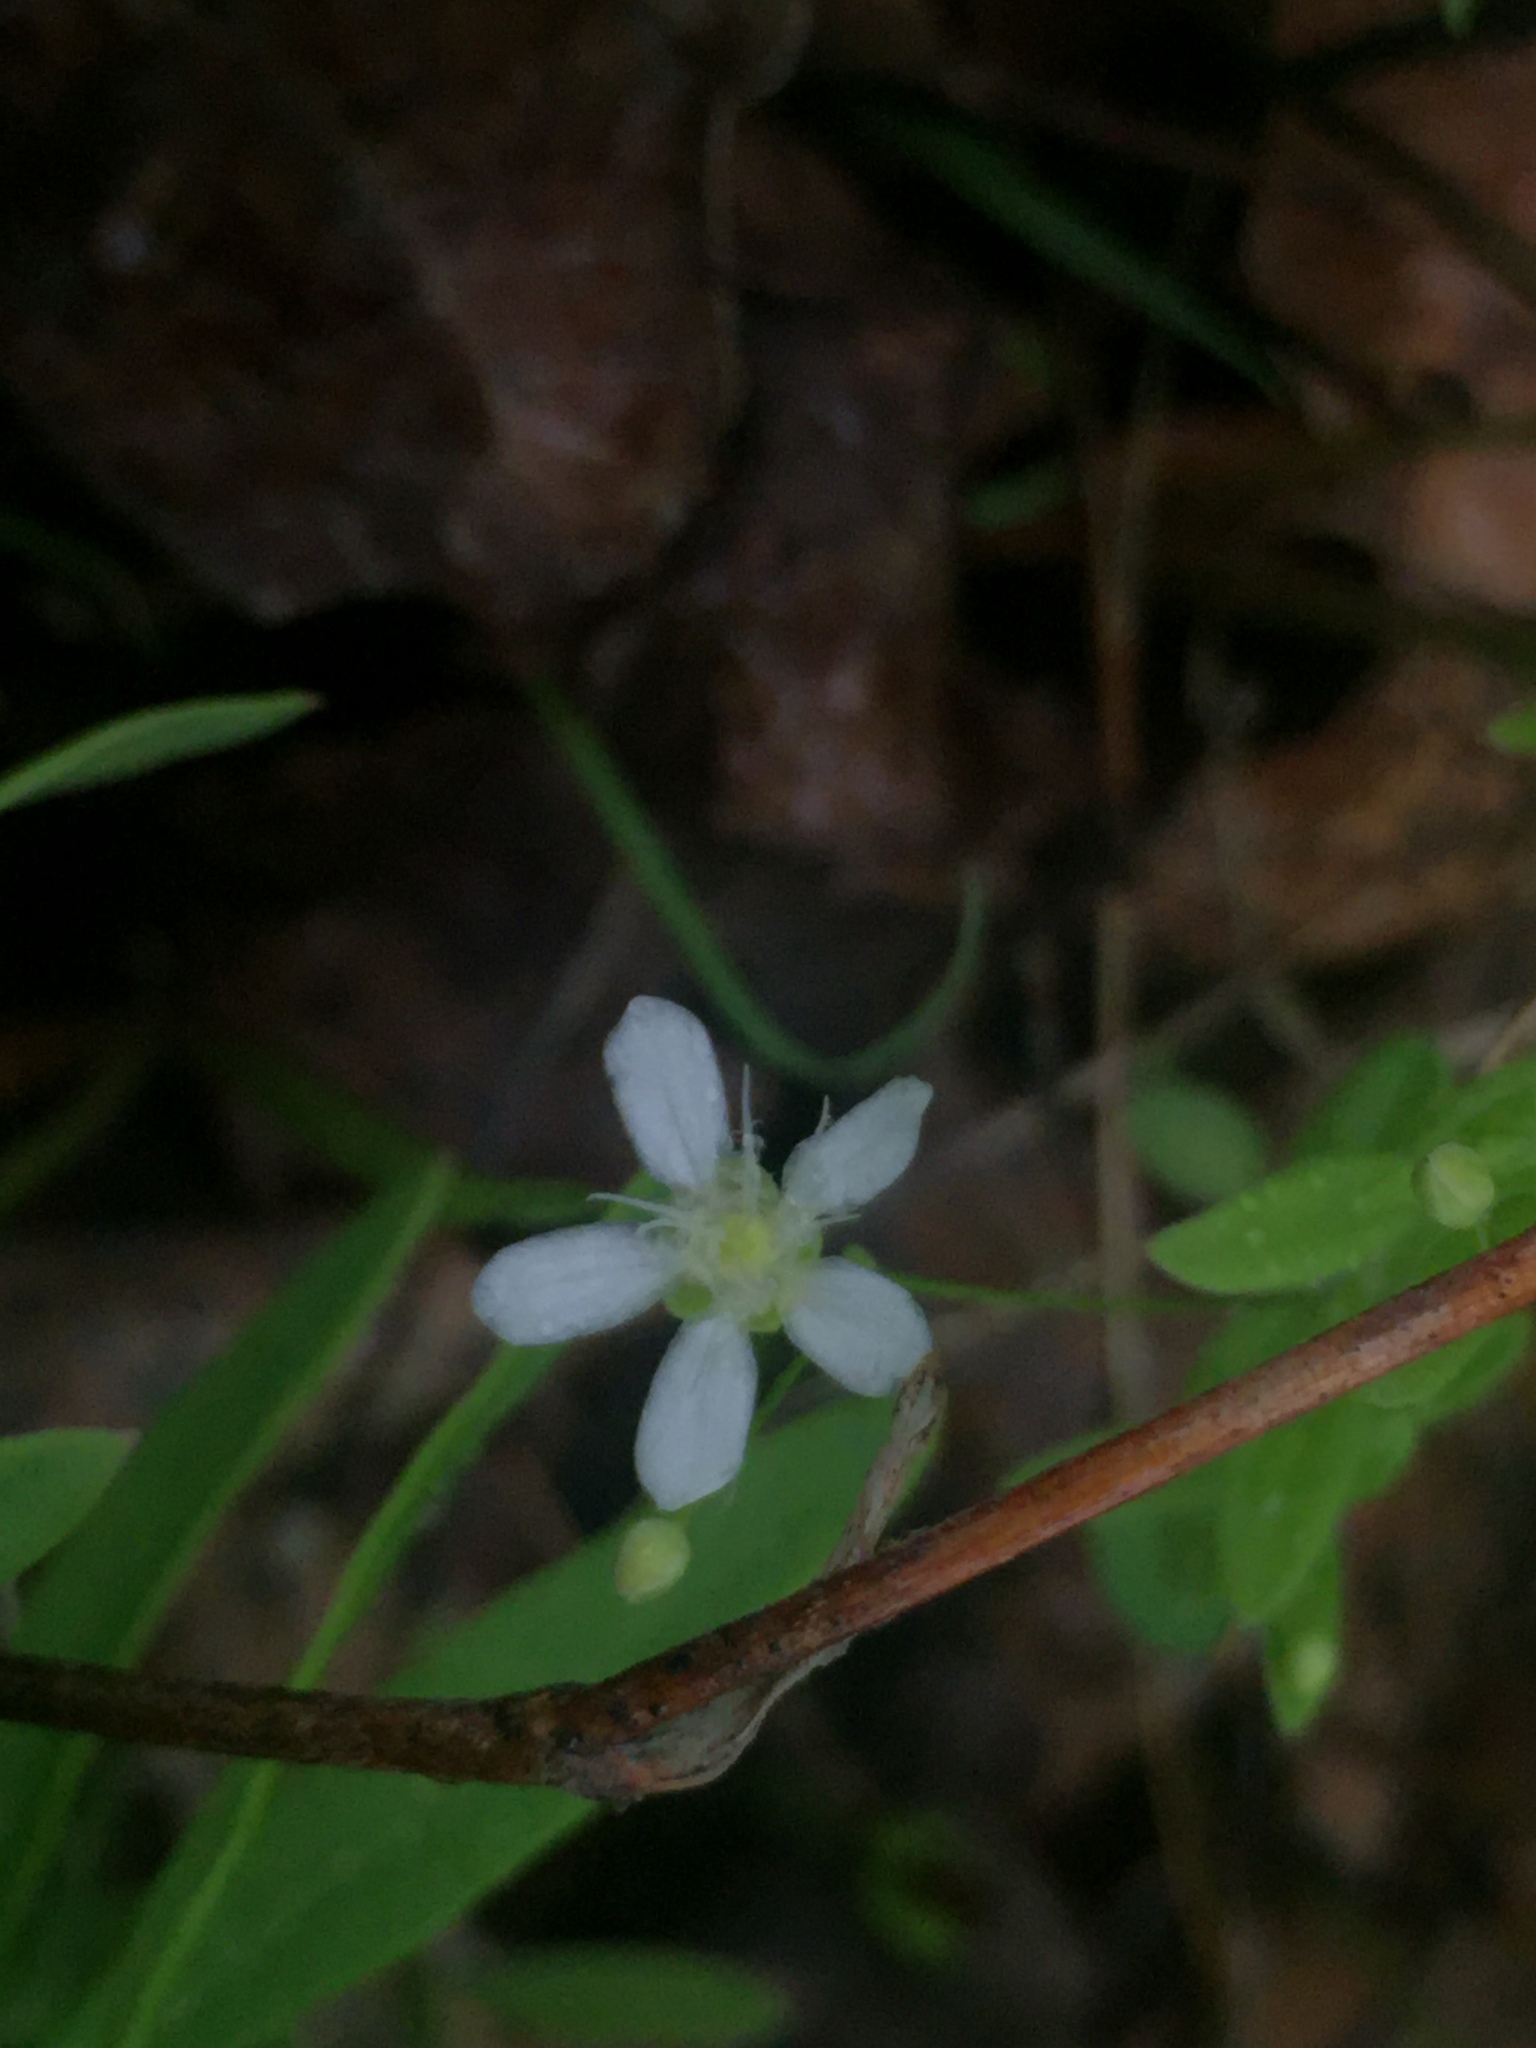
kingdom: Plantae
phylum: Tracheophyta
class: Magnoliopsida
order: Caryophyllales
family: Caryophyllaceae
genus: Moehringia
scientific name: Moehringia lateriflora
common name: Blunt-leaved sandwort
